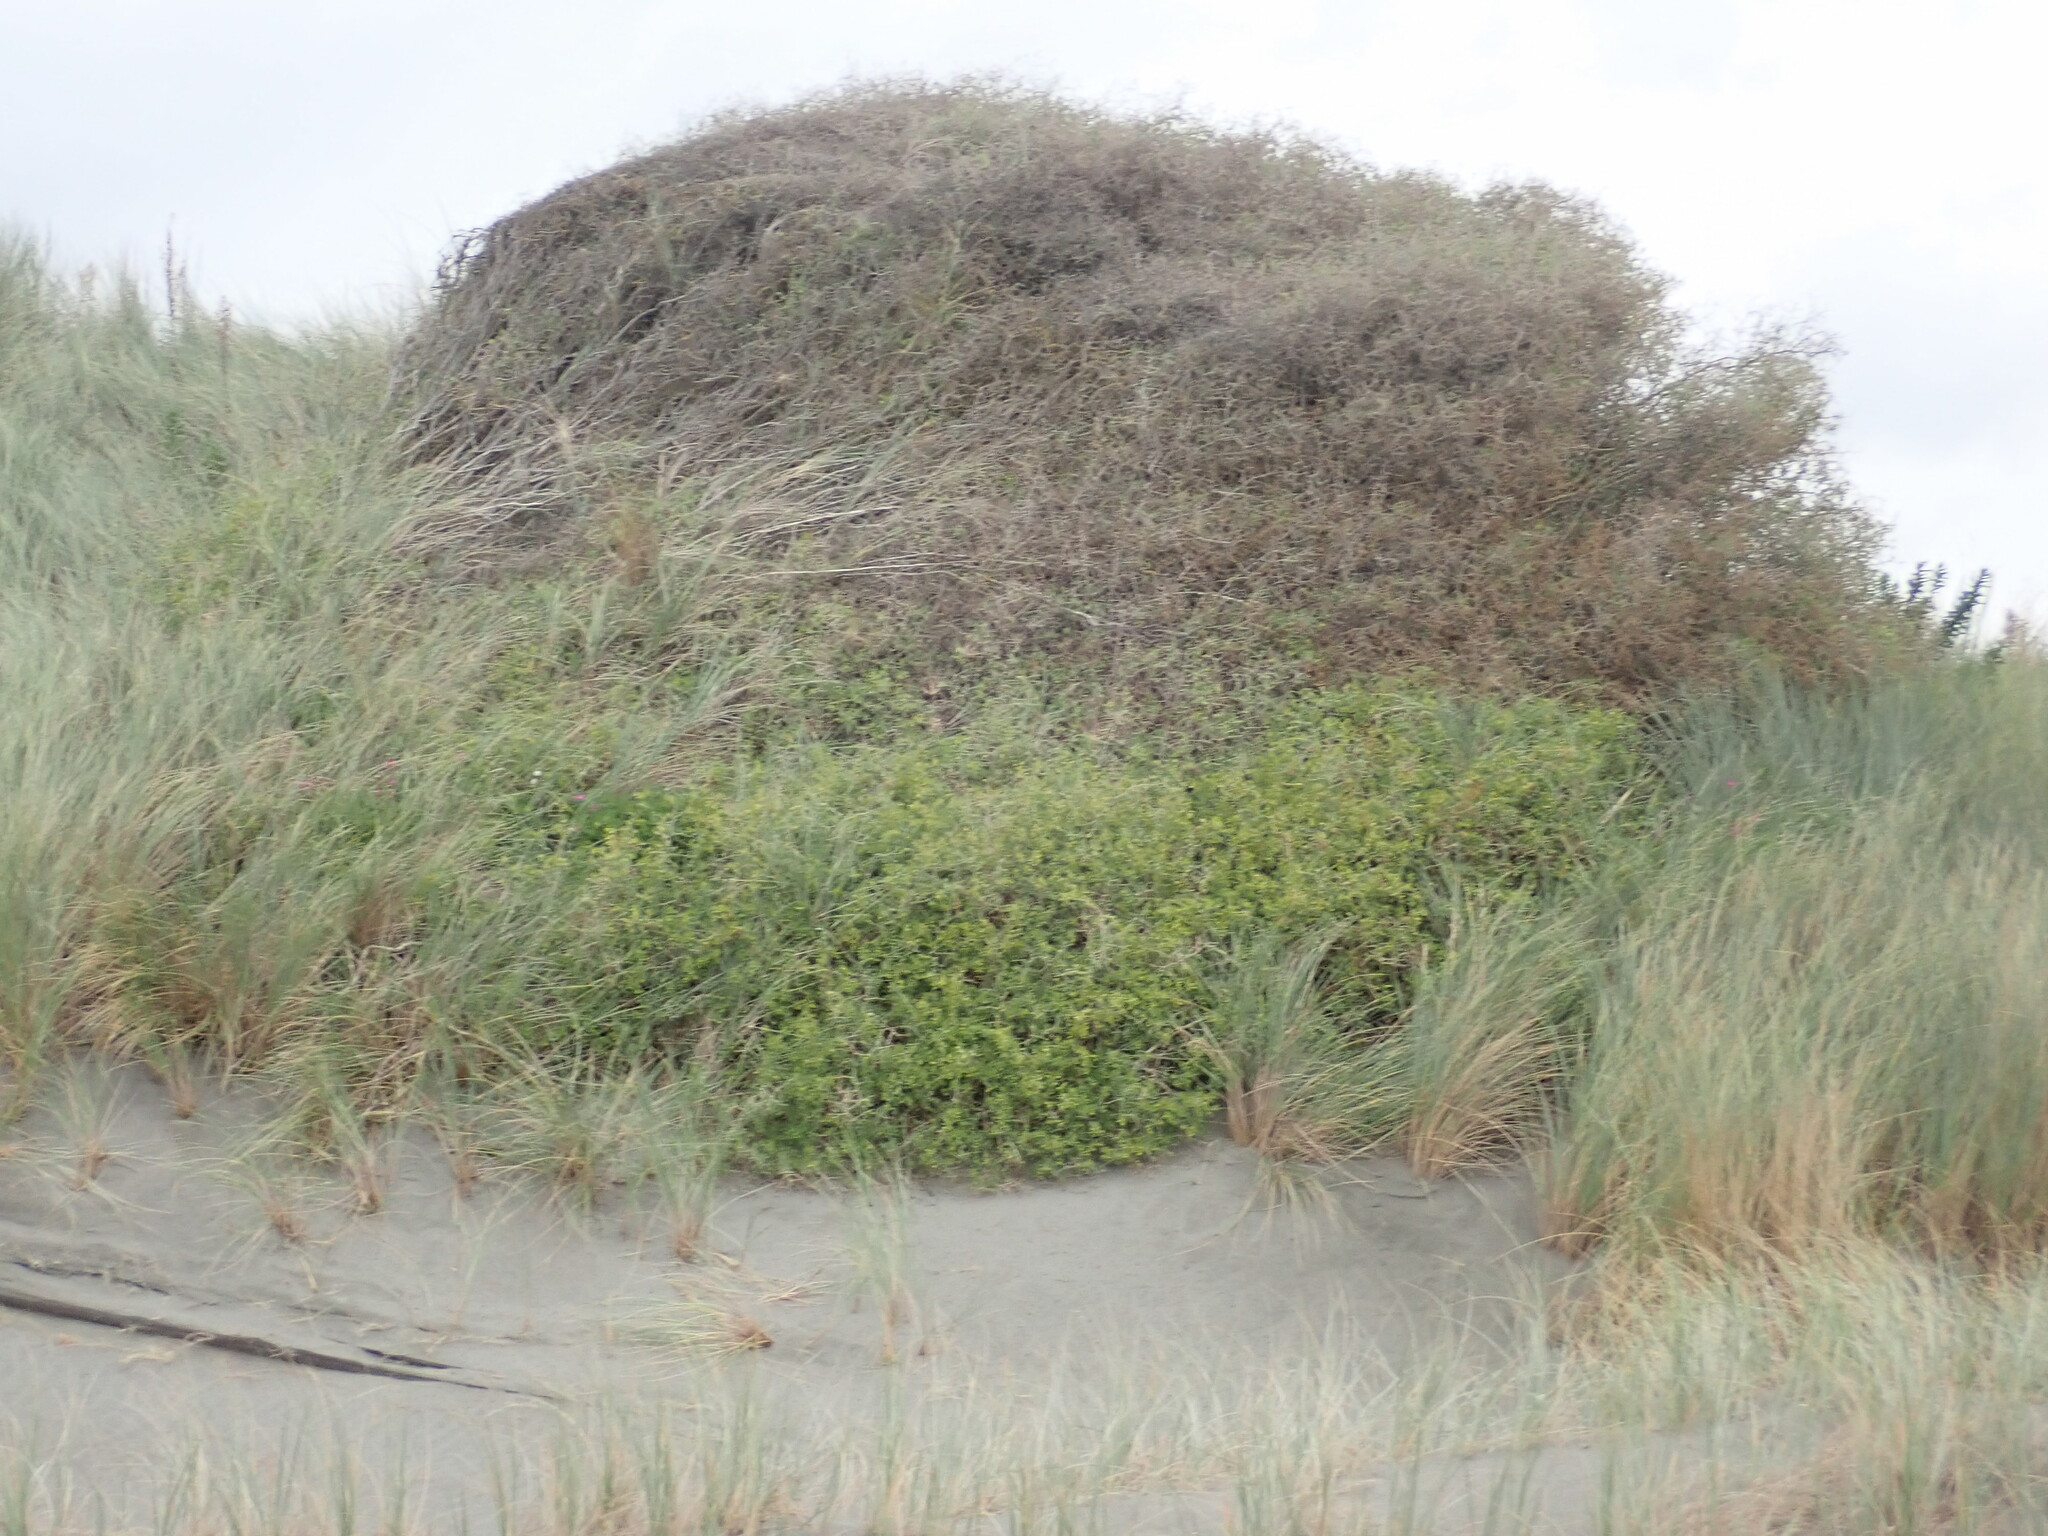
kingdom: Plantae
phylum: Tracheophyta
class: Magnoliopsida
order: Solanales
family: Solanaceae
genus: Lycium
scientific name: Lycium ferocissimum
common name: African boxthorn
